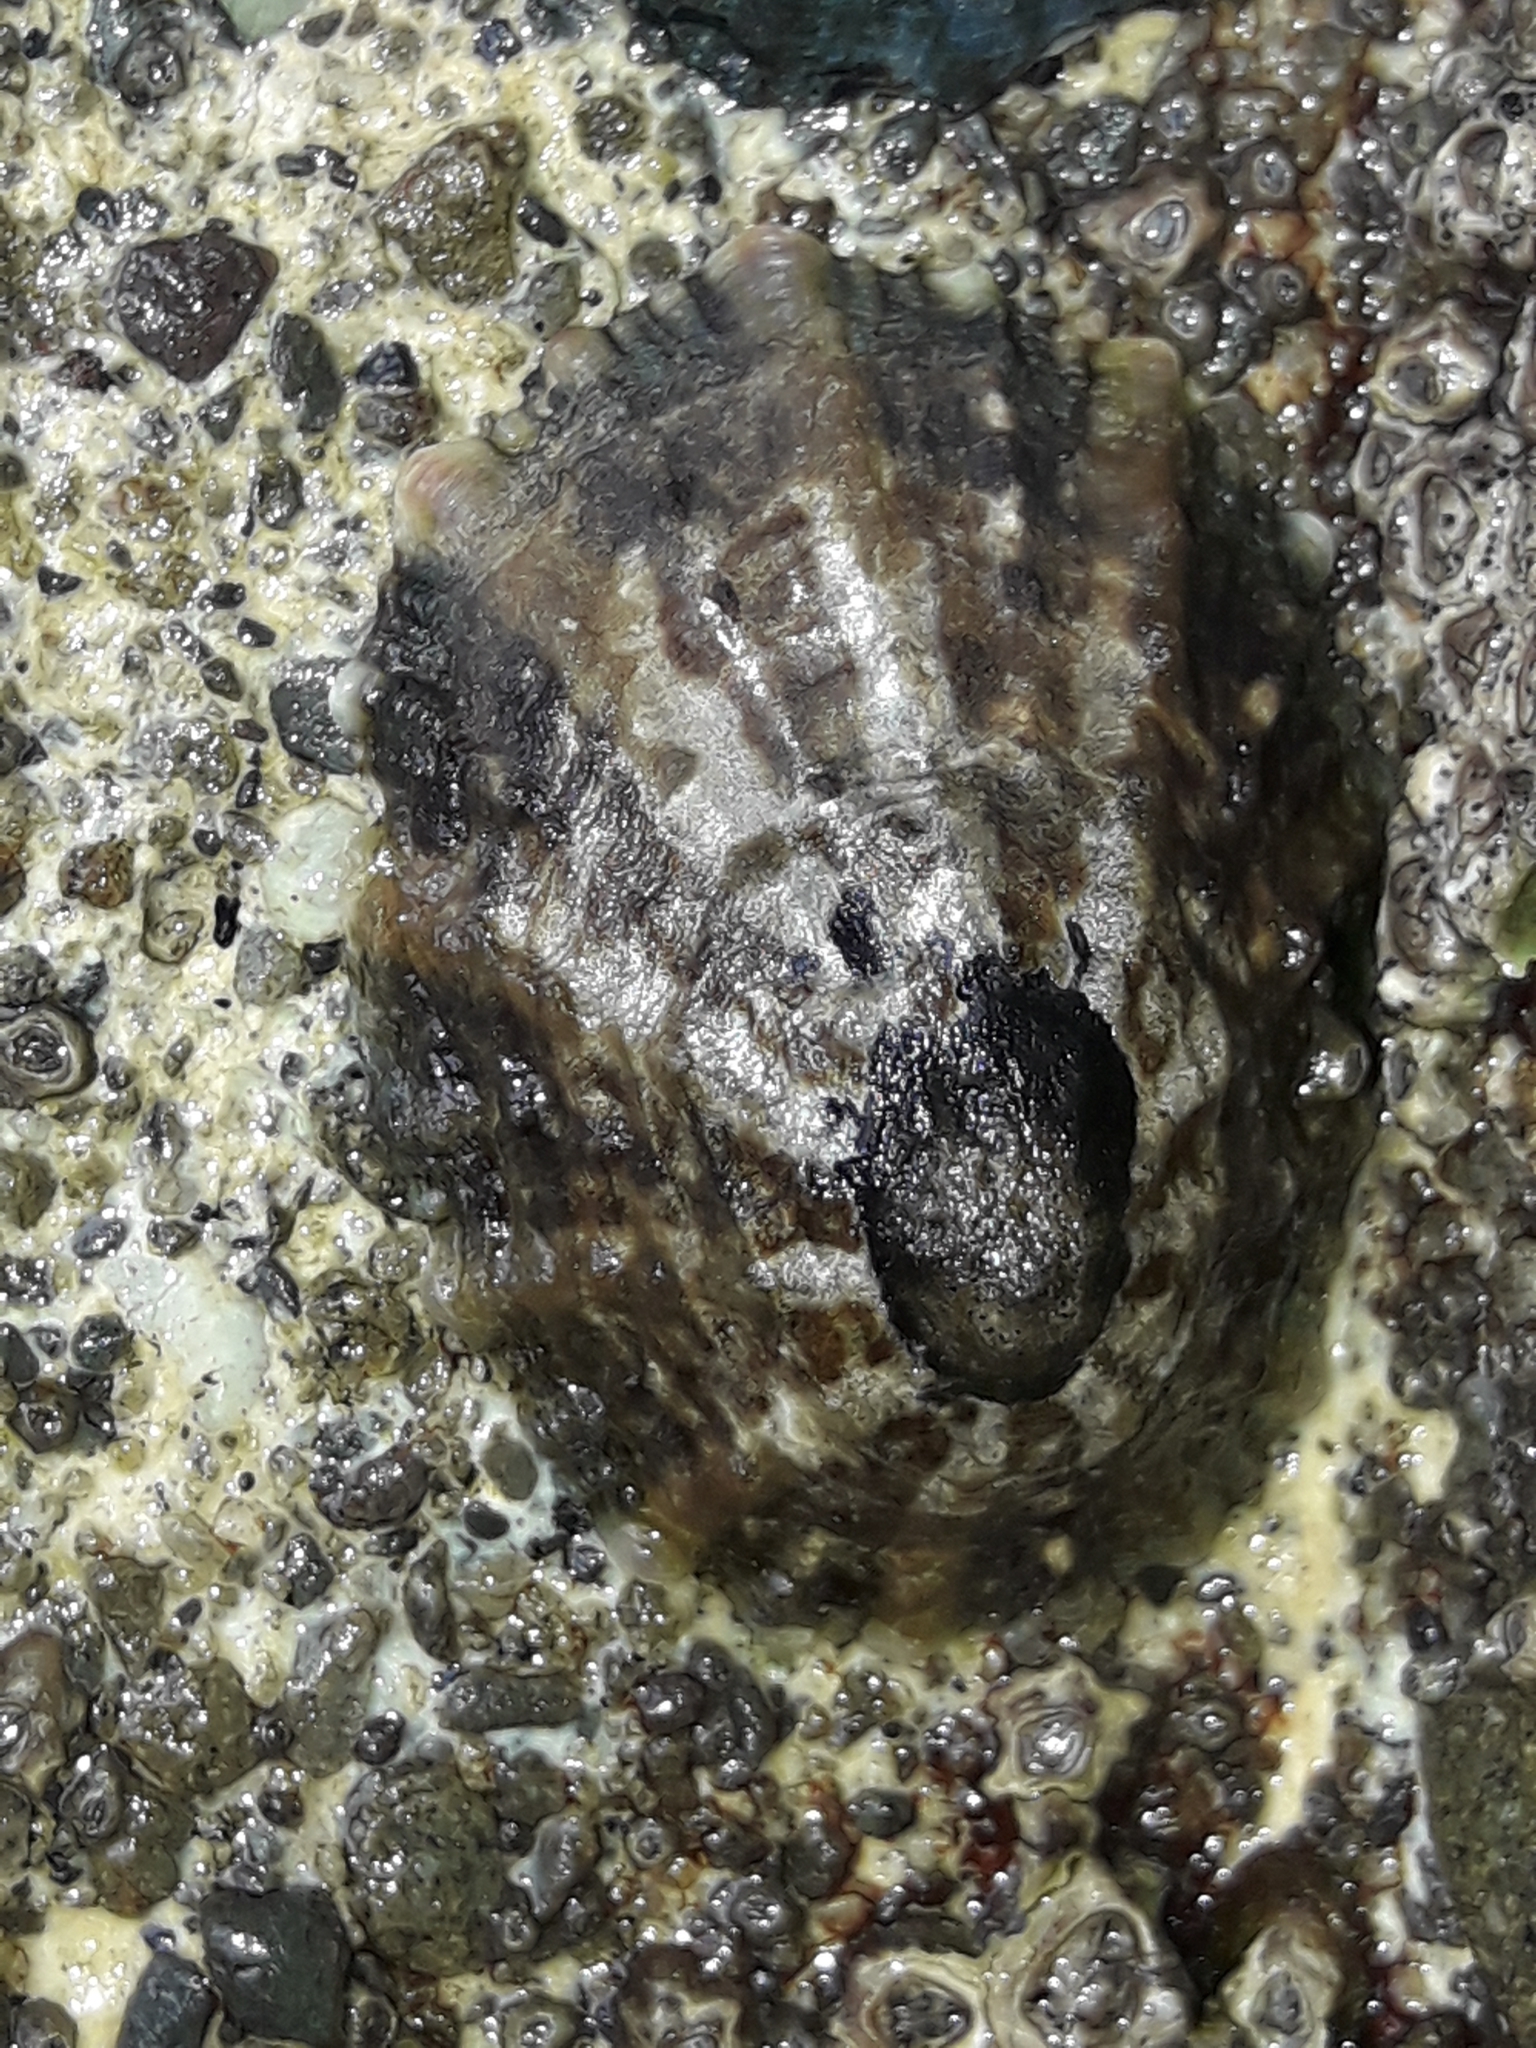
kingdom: Animalia
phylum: Mollusca
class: Gastropoda
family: Nacellidae
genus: Cellana
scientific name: Cellana ornata
